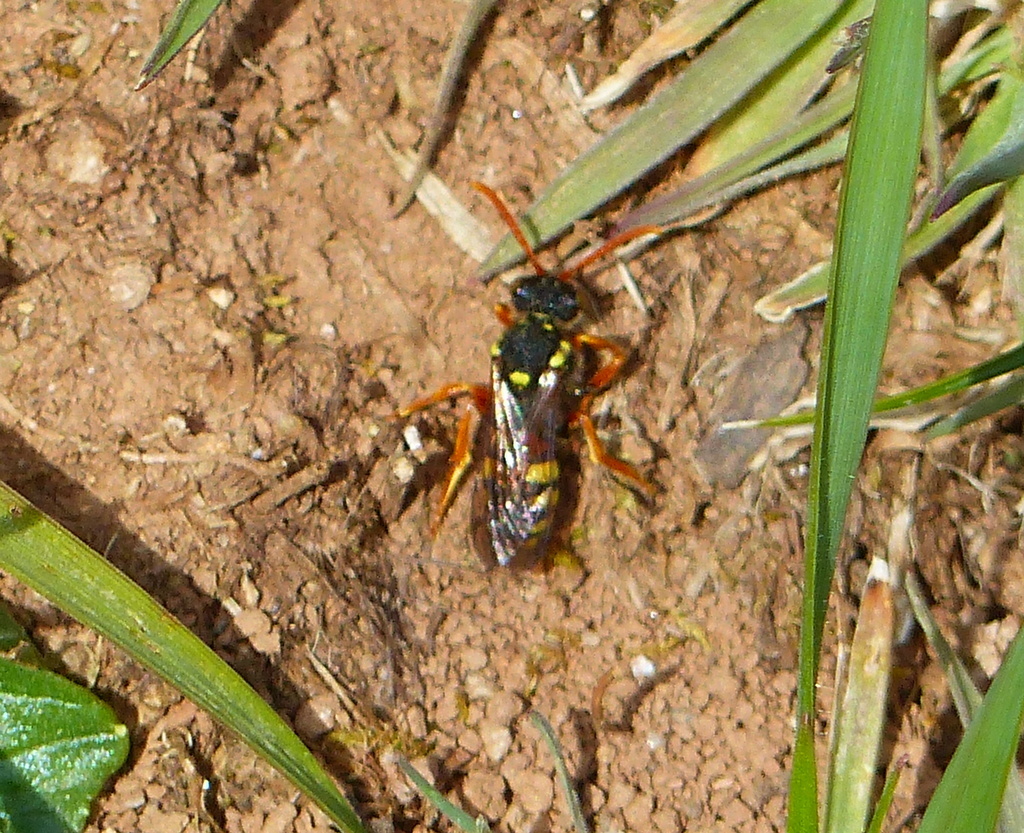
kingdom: Animalia
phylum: Arthropoda
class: Insecta
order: Hymenoptera
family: Apidae
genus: Nomada
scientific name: Nomada fucata
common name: Painted nomad bee
